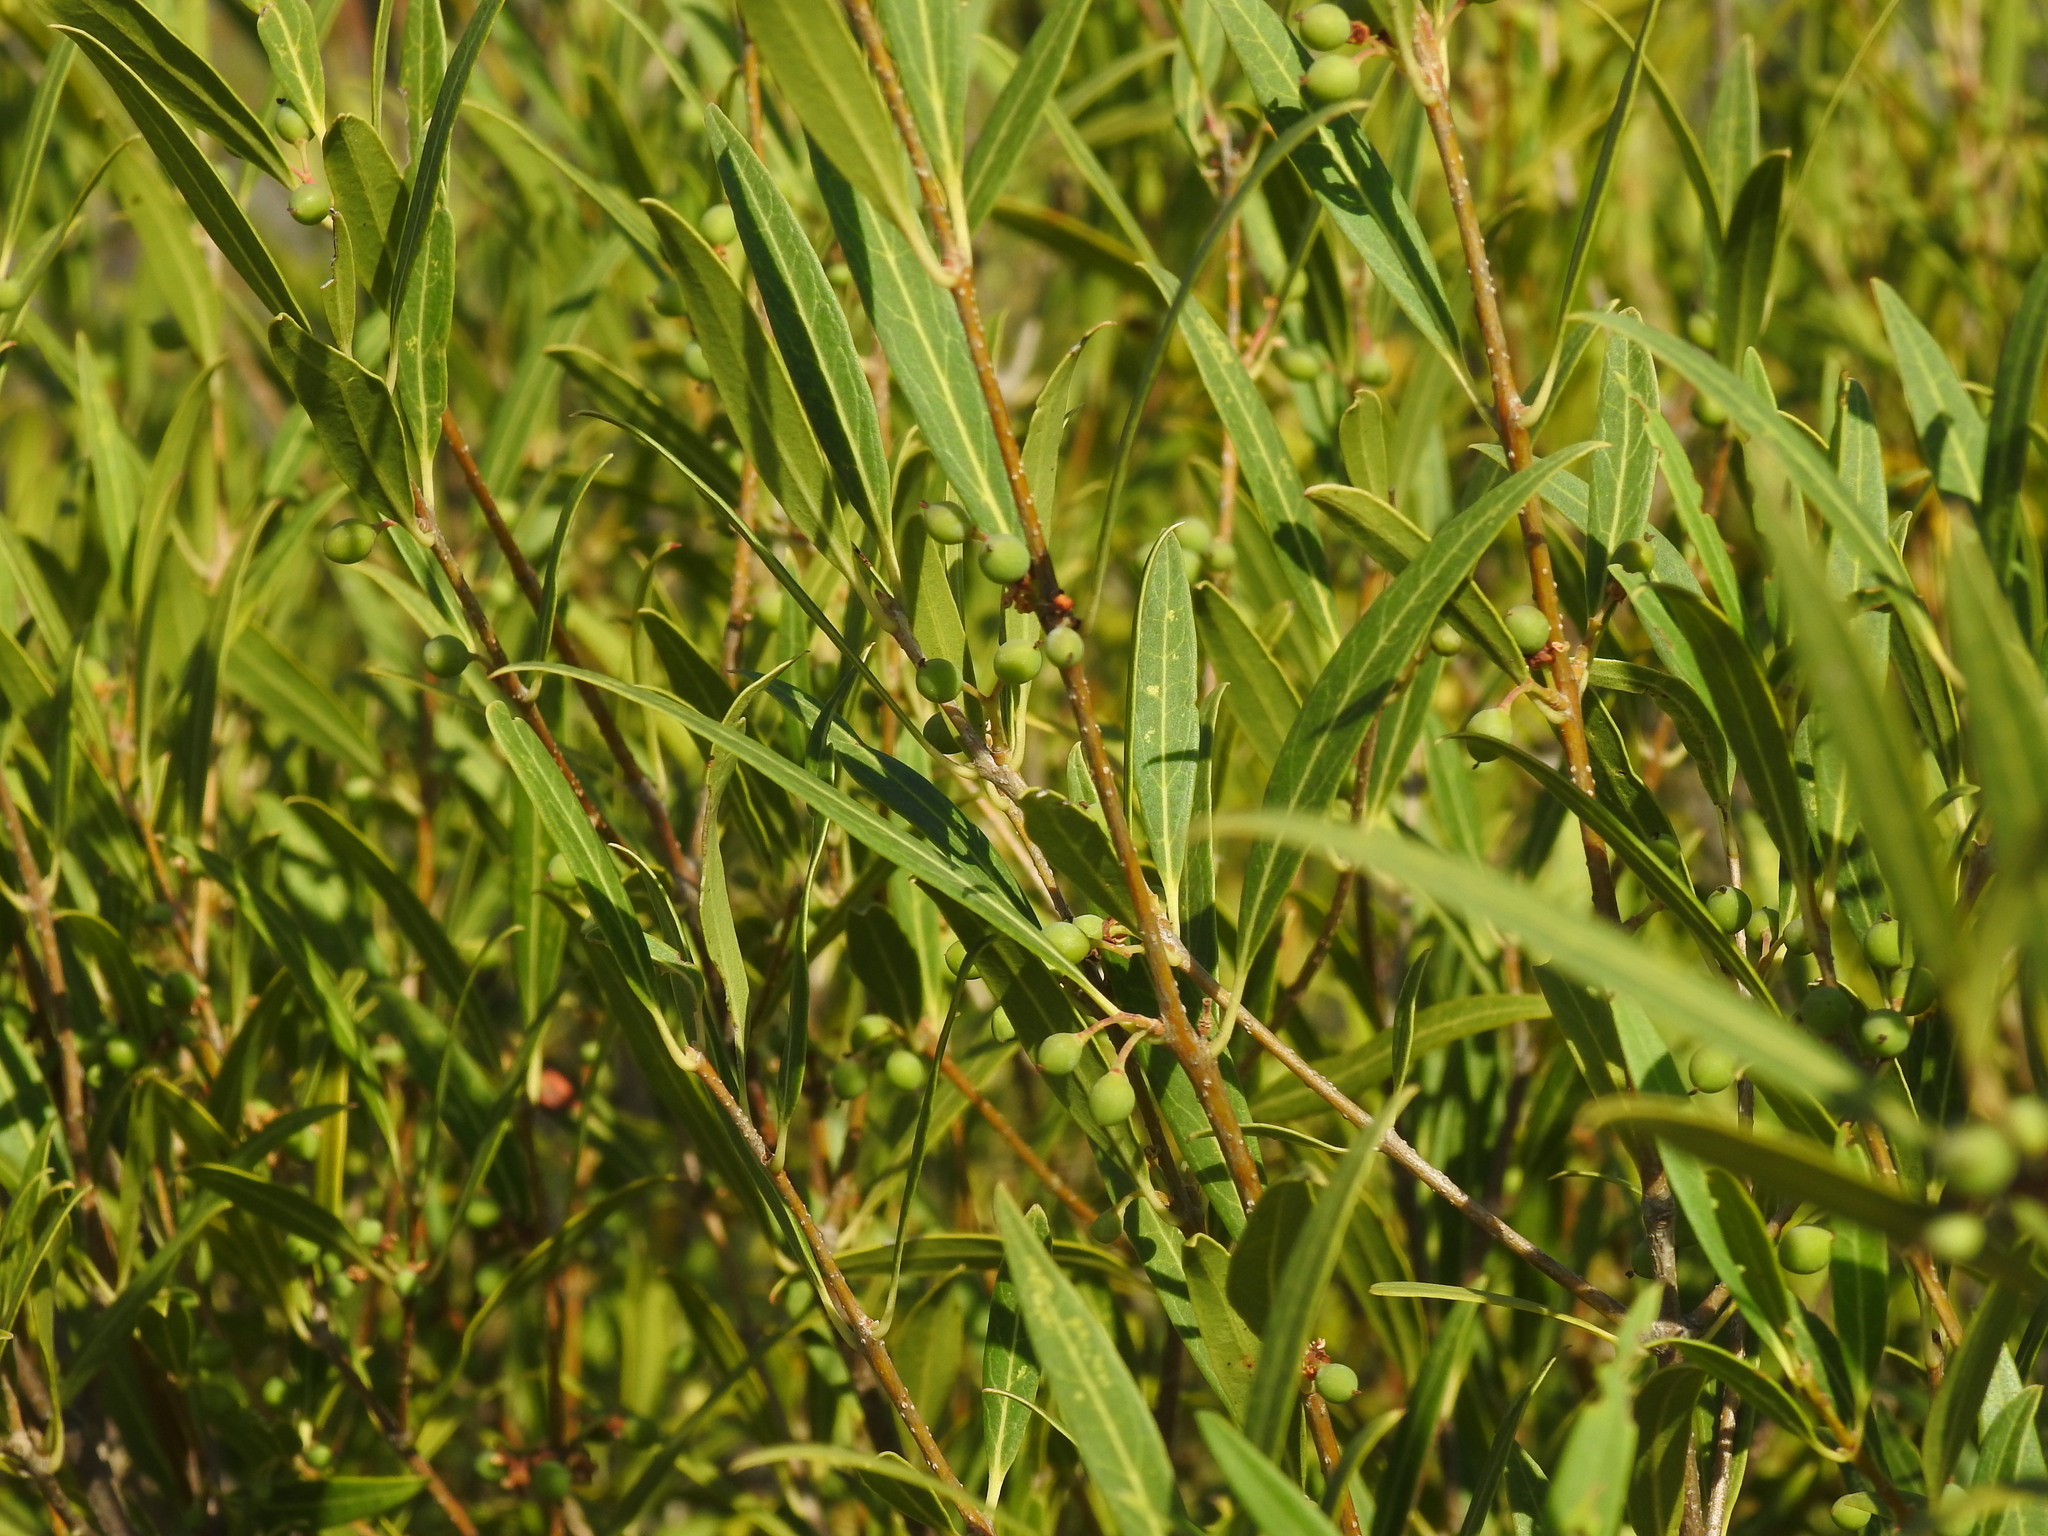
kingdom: Plantae
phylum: Tracheophyta
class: Magnoliopsida
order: Lamiales
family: Oleaceae
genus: Phillyrea
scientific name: Phillyrea angustifolia
